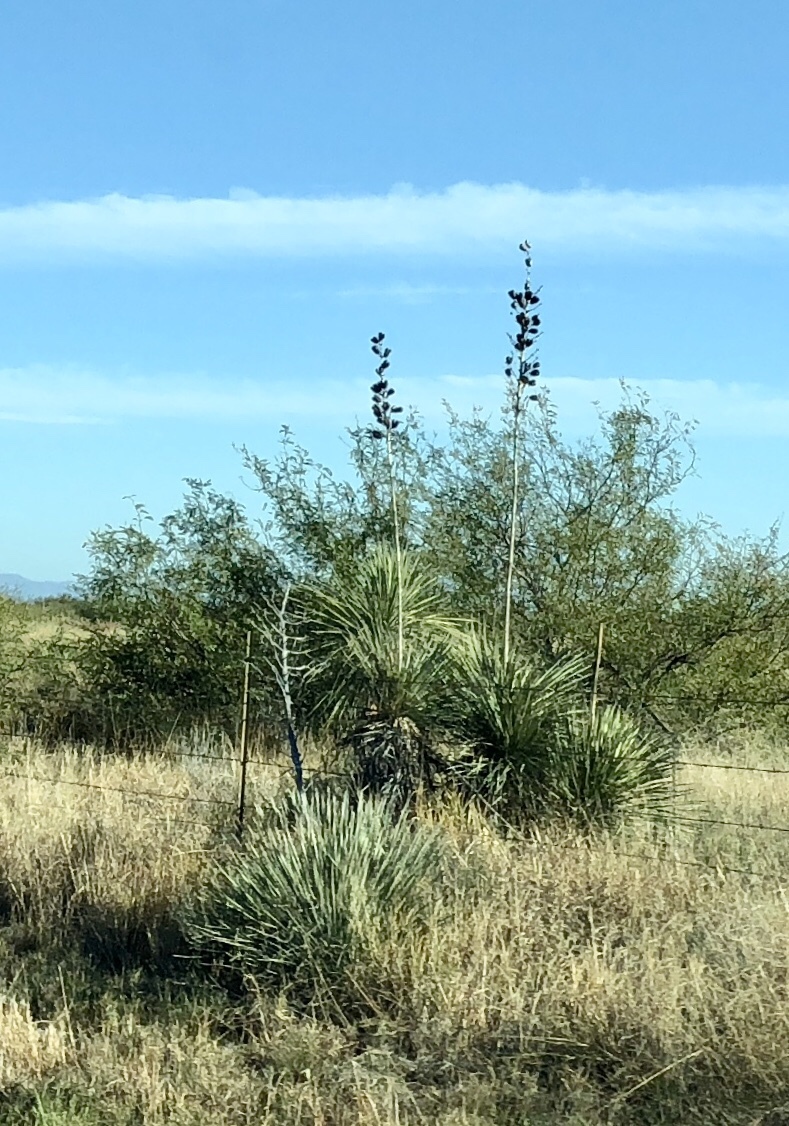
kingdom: Plantae
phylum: Tracheophyta
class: Liliopsida
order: Asparagales
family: Asparagaceae
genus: Yucca
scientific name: Yucca elata
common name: Palmella
